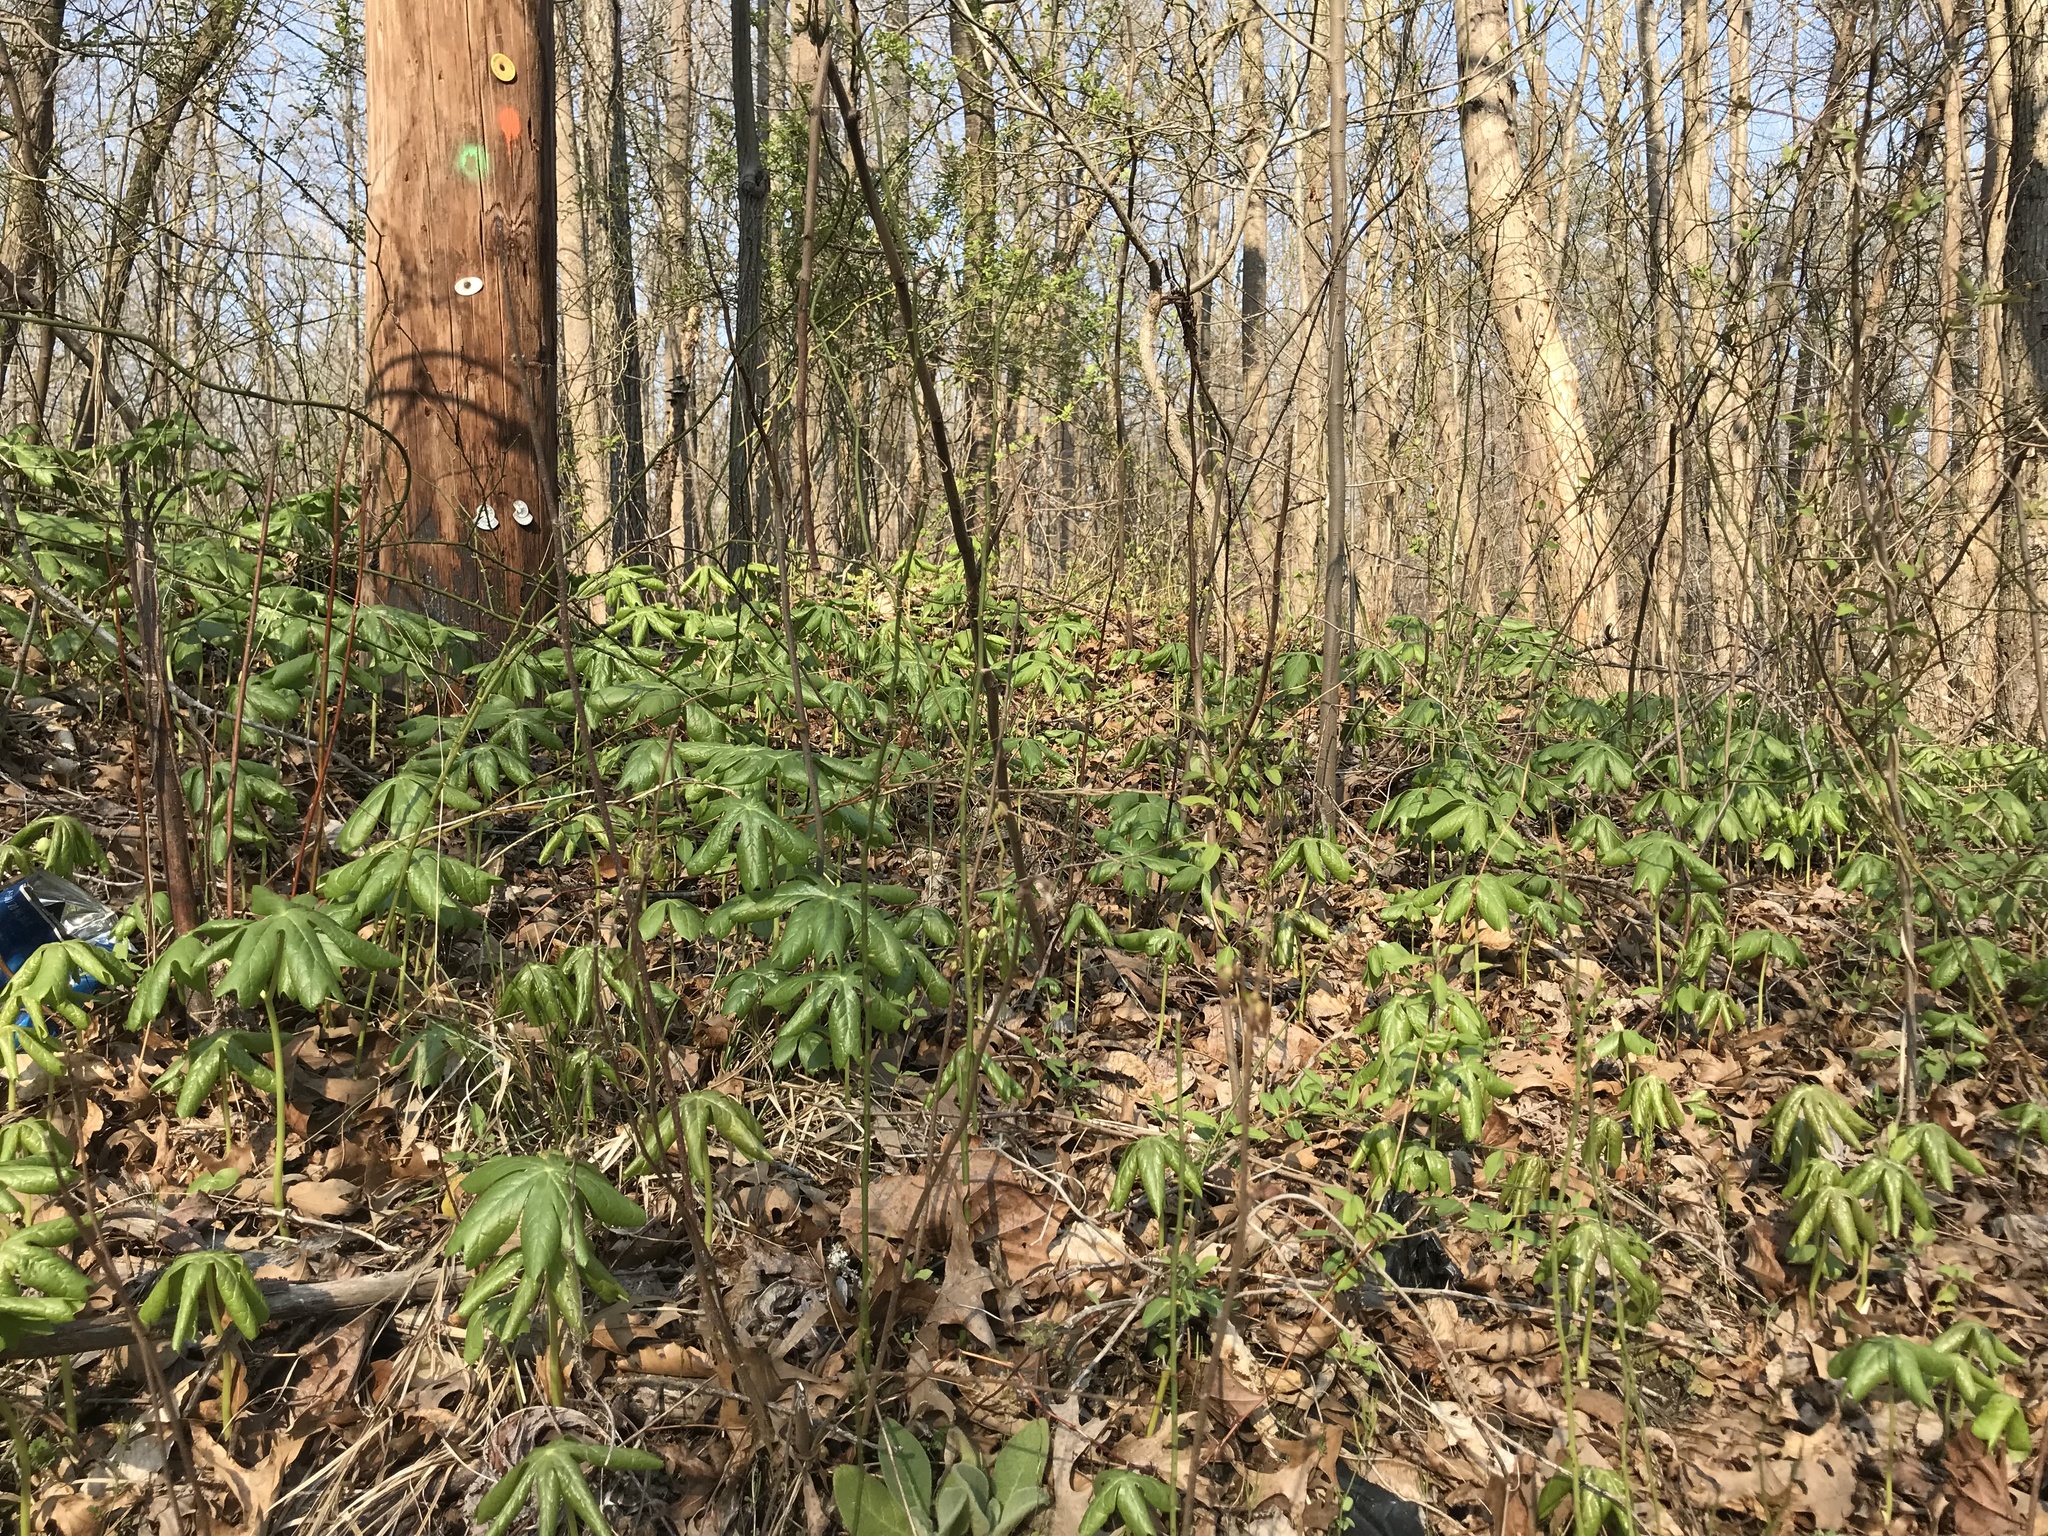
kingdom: Plantae
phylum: Tracheophyta
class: Magnoliopsida
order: Ranunculales
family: Berberidaceae
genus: Podophyllum
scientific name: Podophyllum peltatum
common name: Wild mandrake
